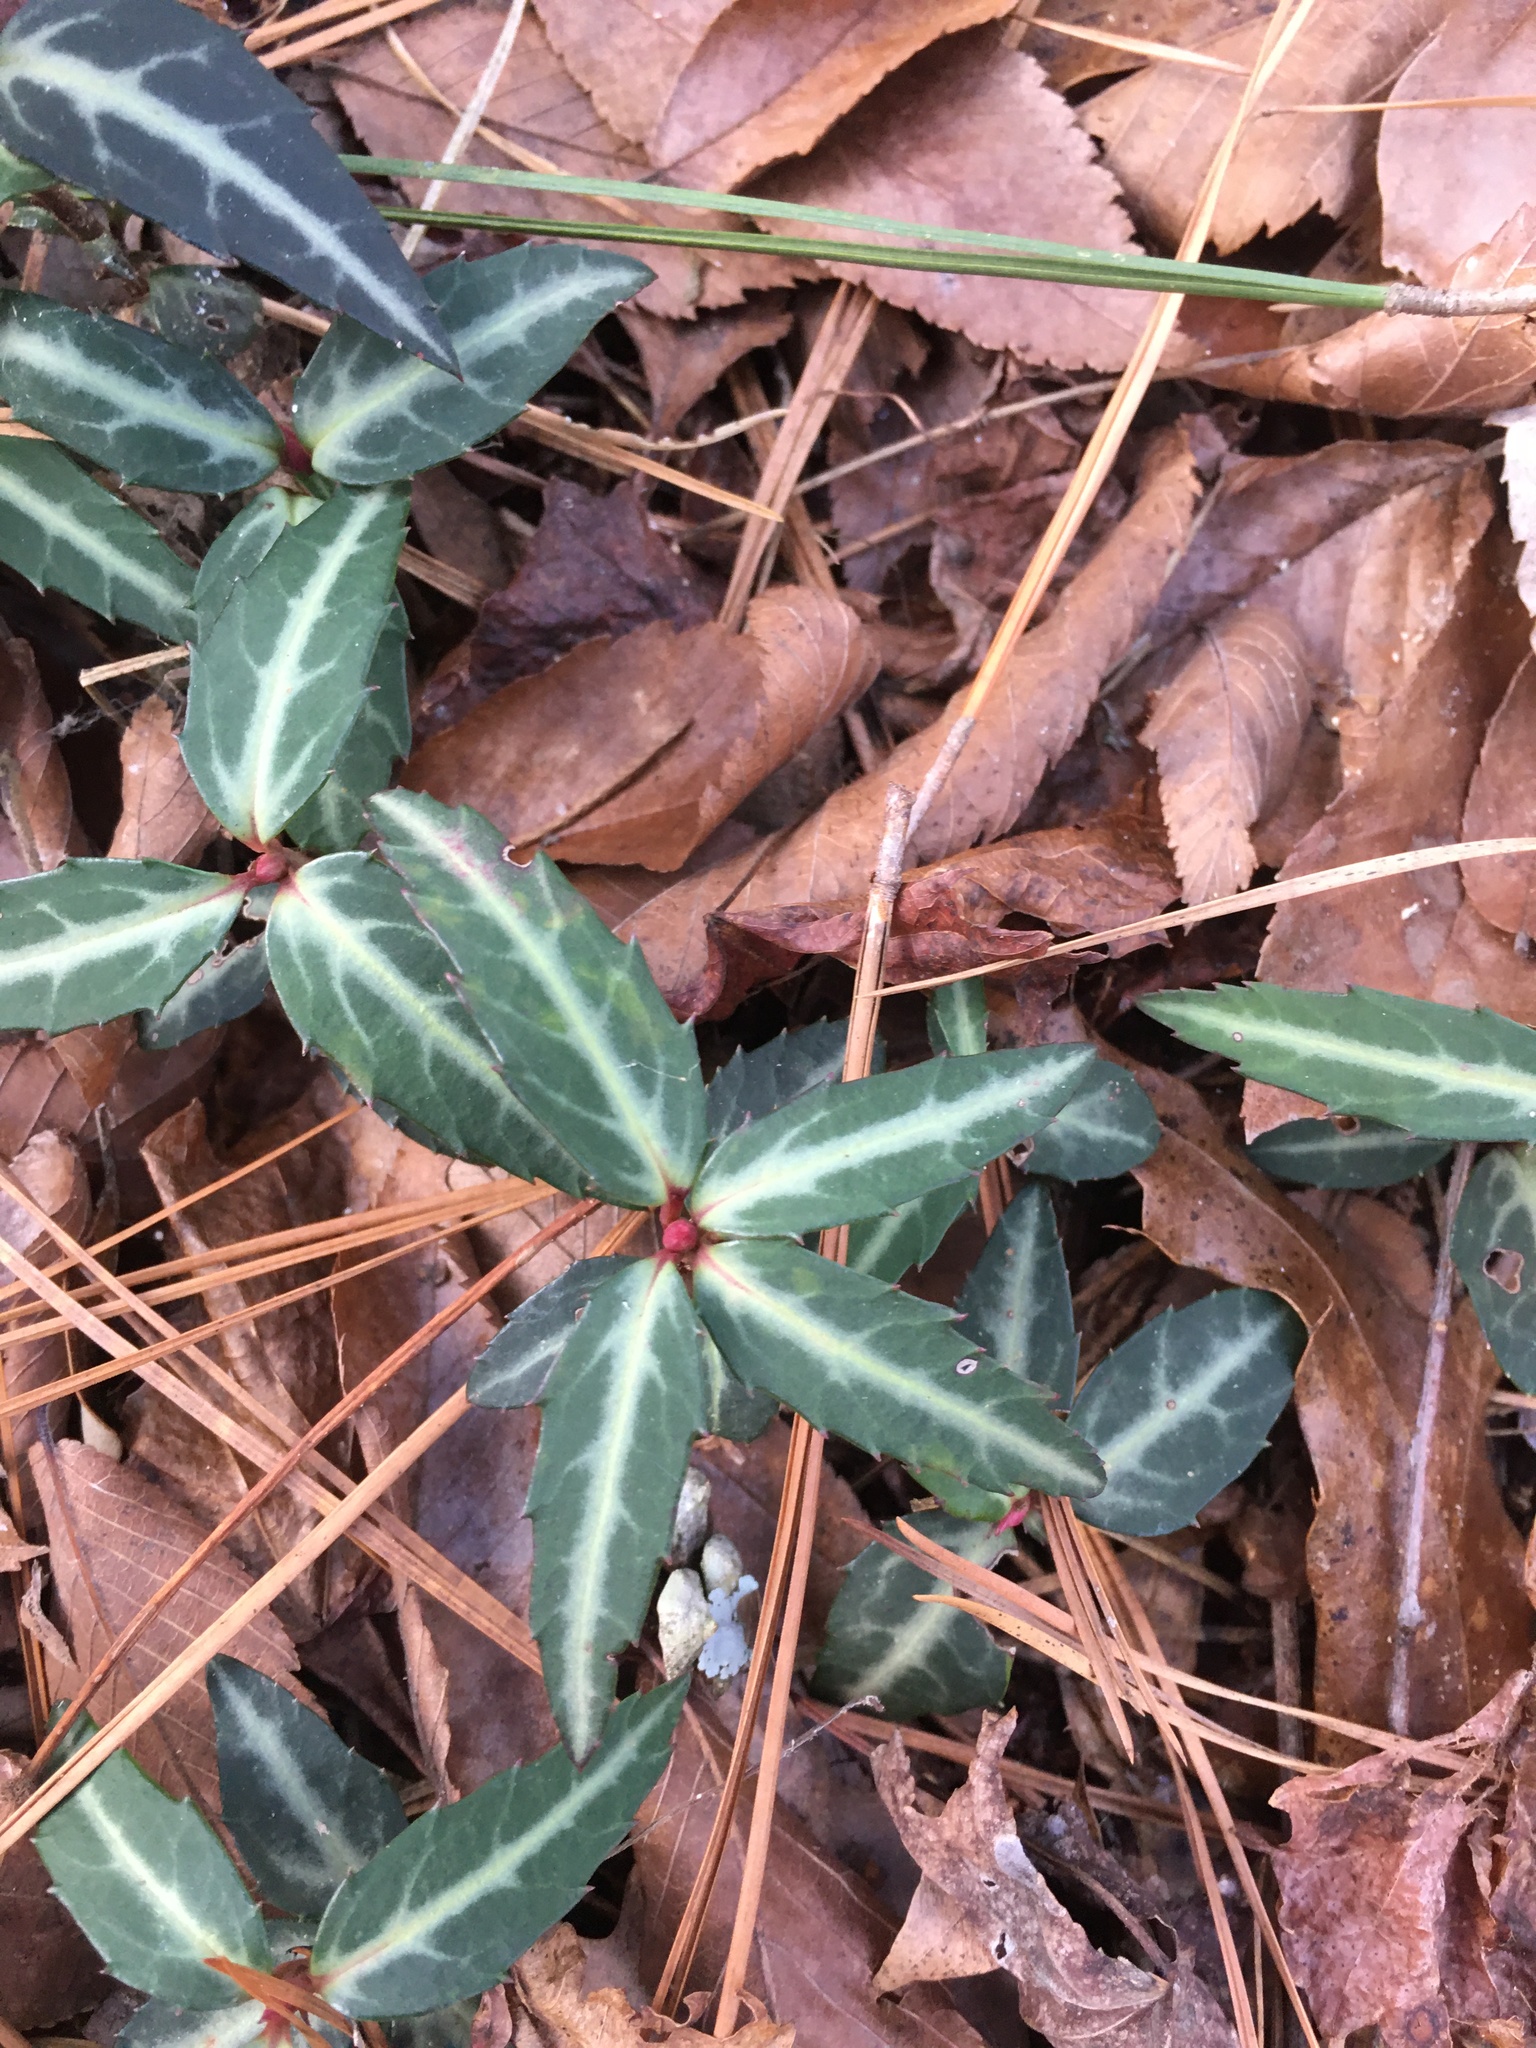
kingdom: Plantae
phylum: Tracheophyta
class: Magnoliopsida
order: Ericales
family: Ericaceae
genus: Chimaphila
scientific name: Chimaphila maculata
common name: Spotted pipsissewa
